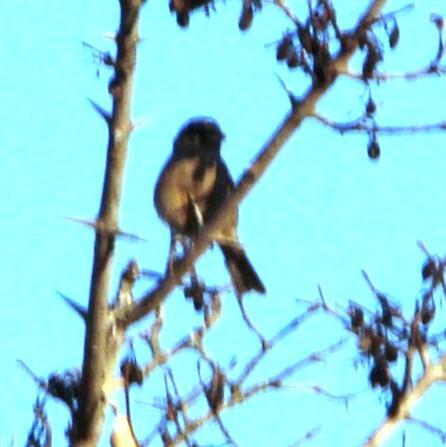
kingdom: Animalia
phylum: Chordata
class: Aves
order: Passeriformes
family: Fringillidae
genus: Crithagra
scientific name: Crithagra gularis
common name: Streaky-headed seedeater
